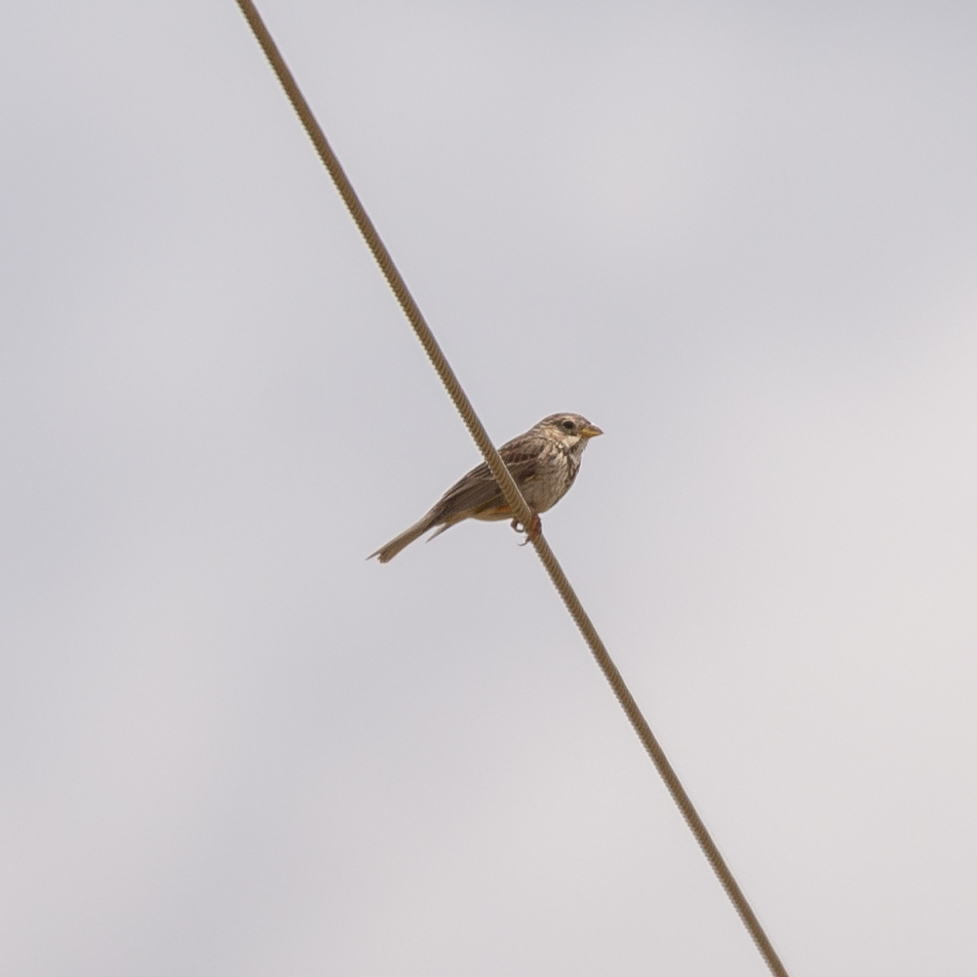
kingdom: Animalia
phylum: Chordata
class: Aves
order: Passeriformes
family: Emberizidae
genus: Emberiza
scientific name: Emberiza calandra
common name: Corn bunting
